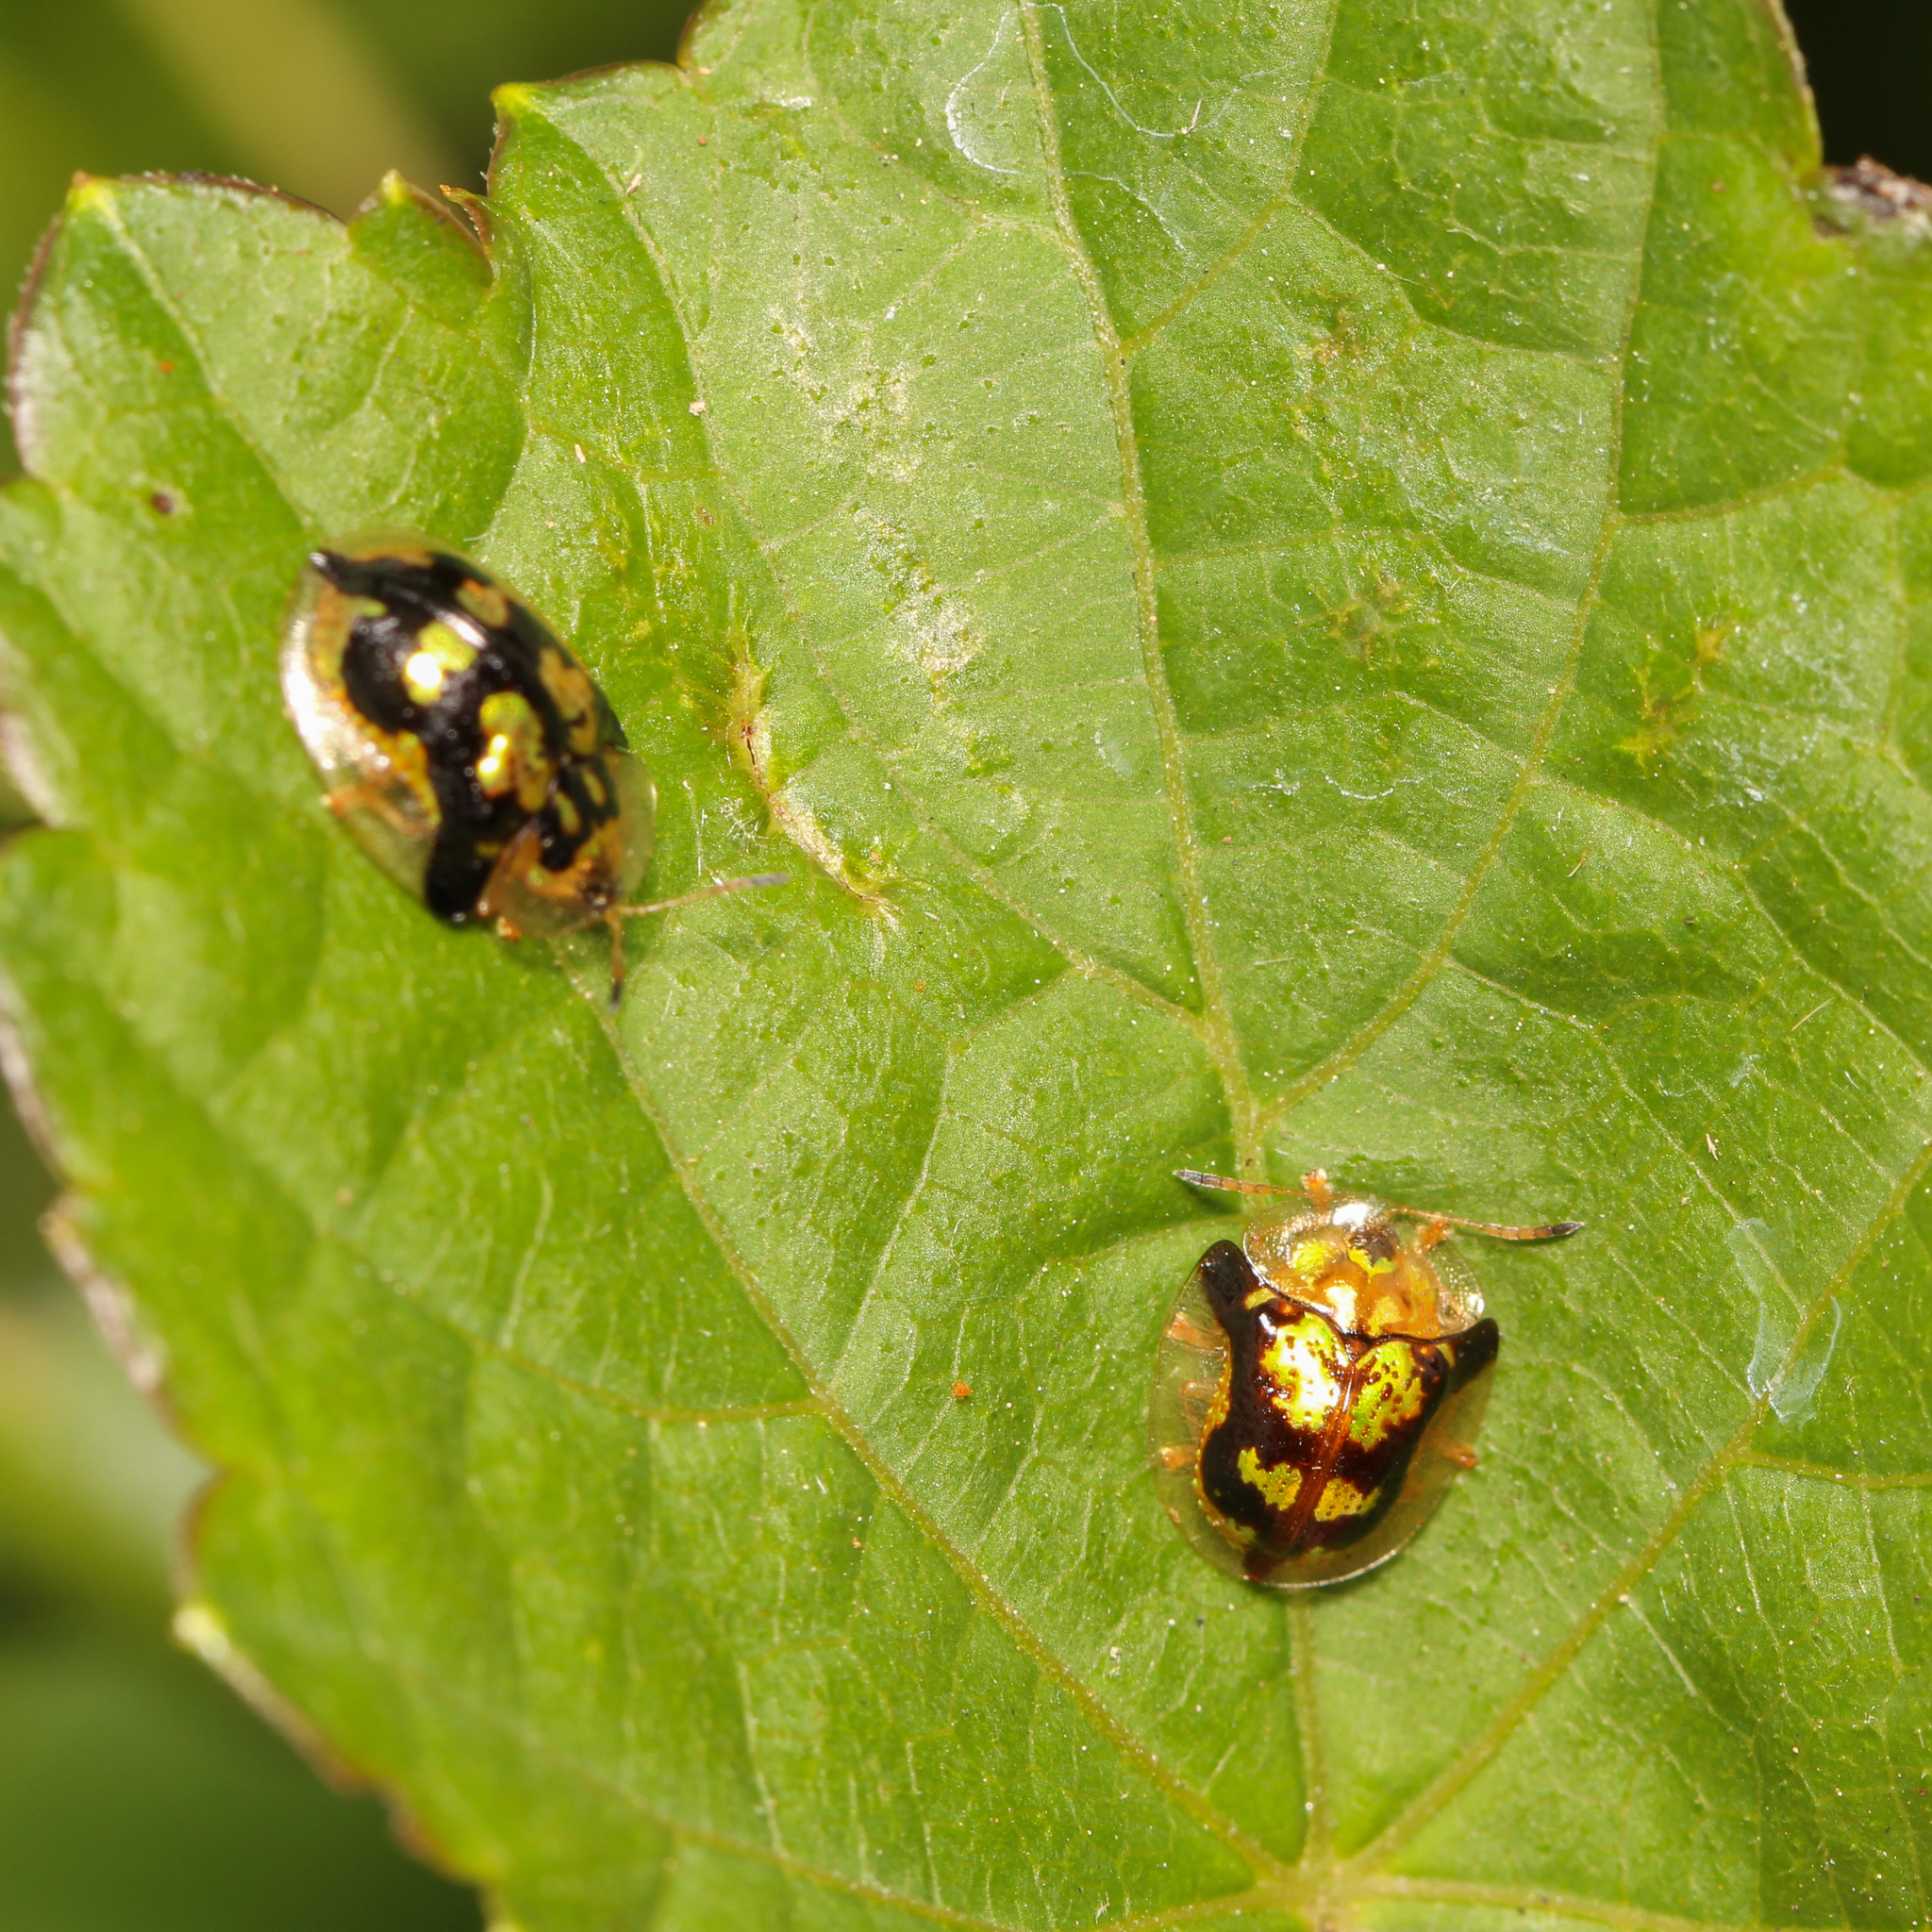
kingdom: Animalia
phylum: Arthropoda
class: Insecta
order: Coleoptera
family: Chrysomelidae
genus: Deloyala
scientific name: Deloyala guttata
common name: Mottled tortoise beetle
